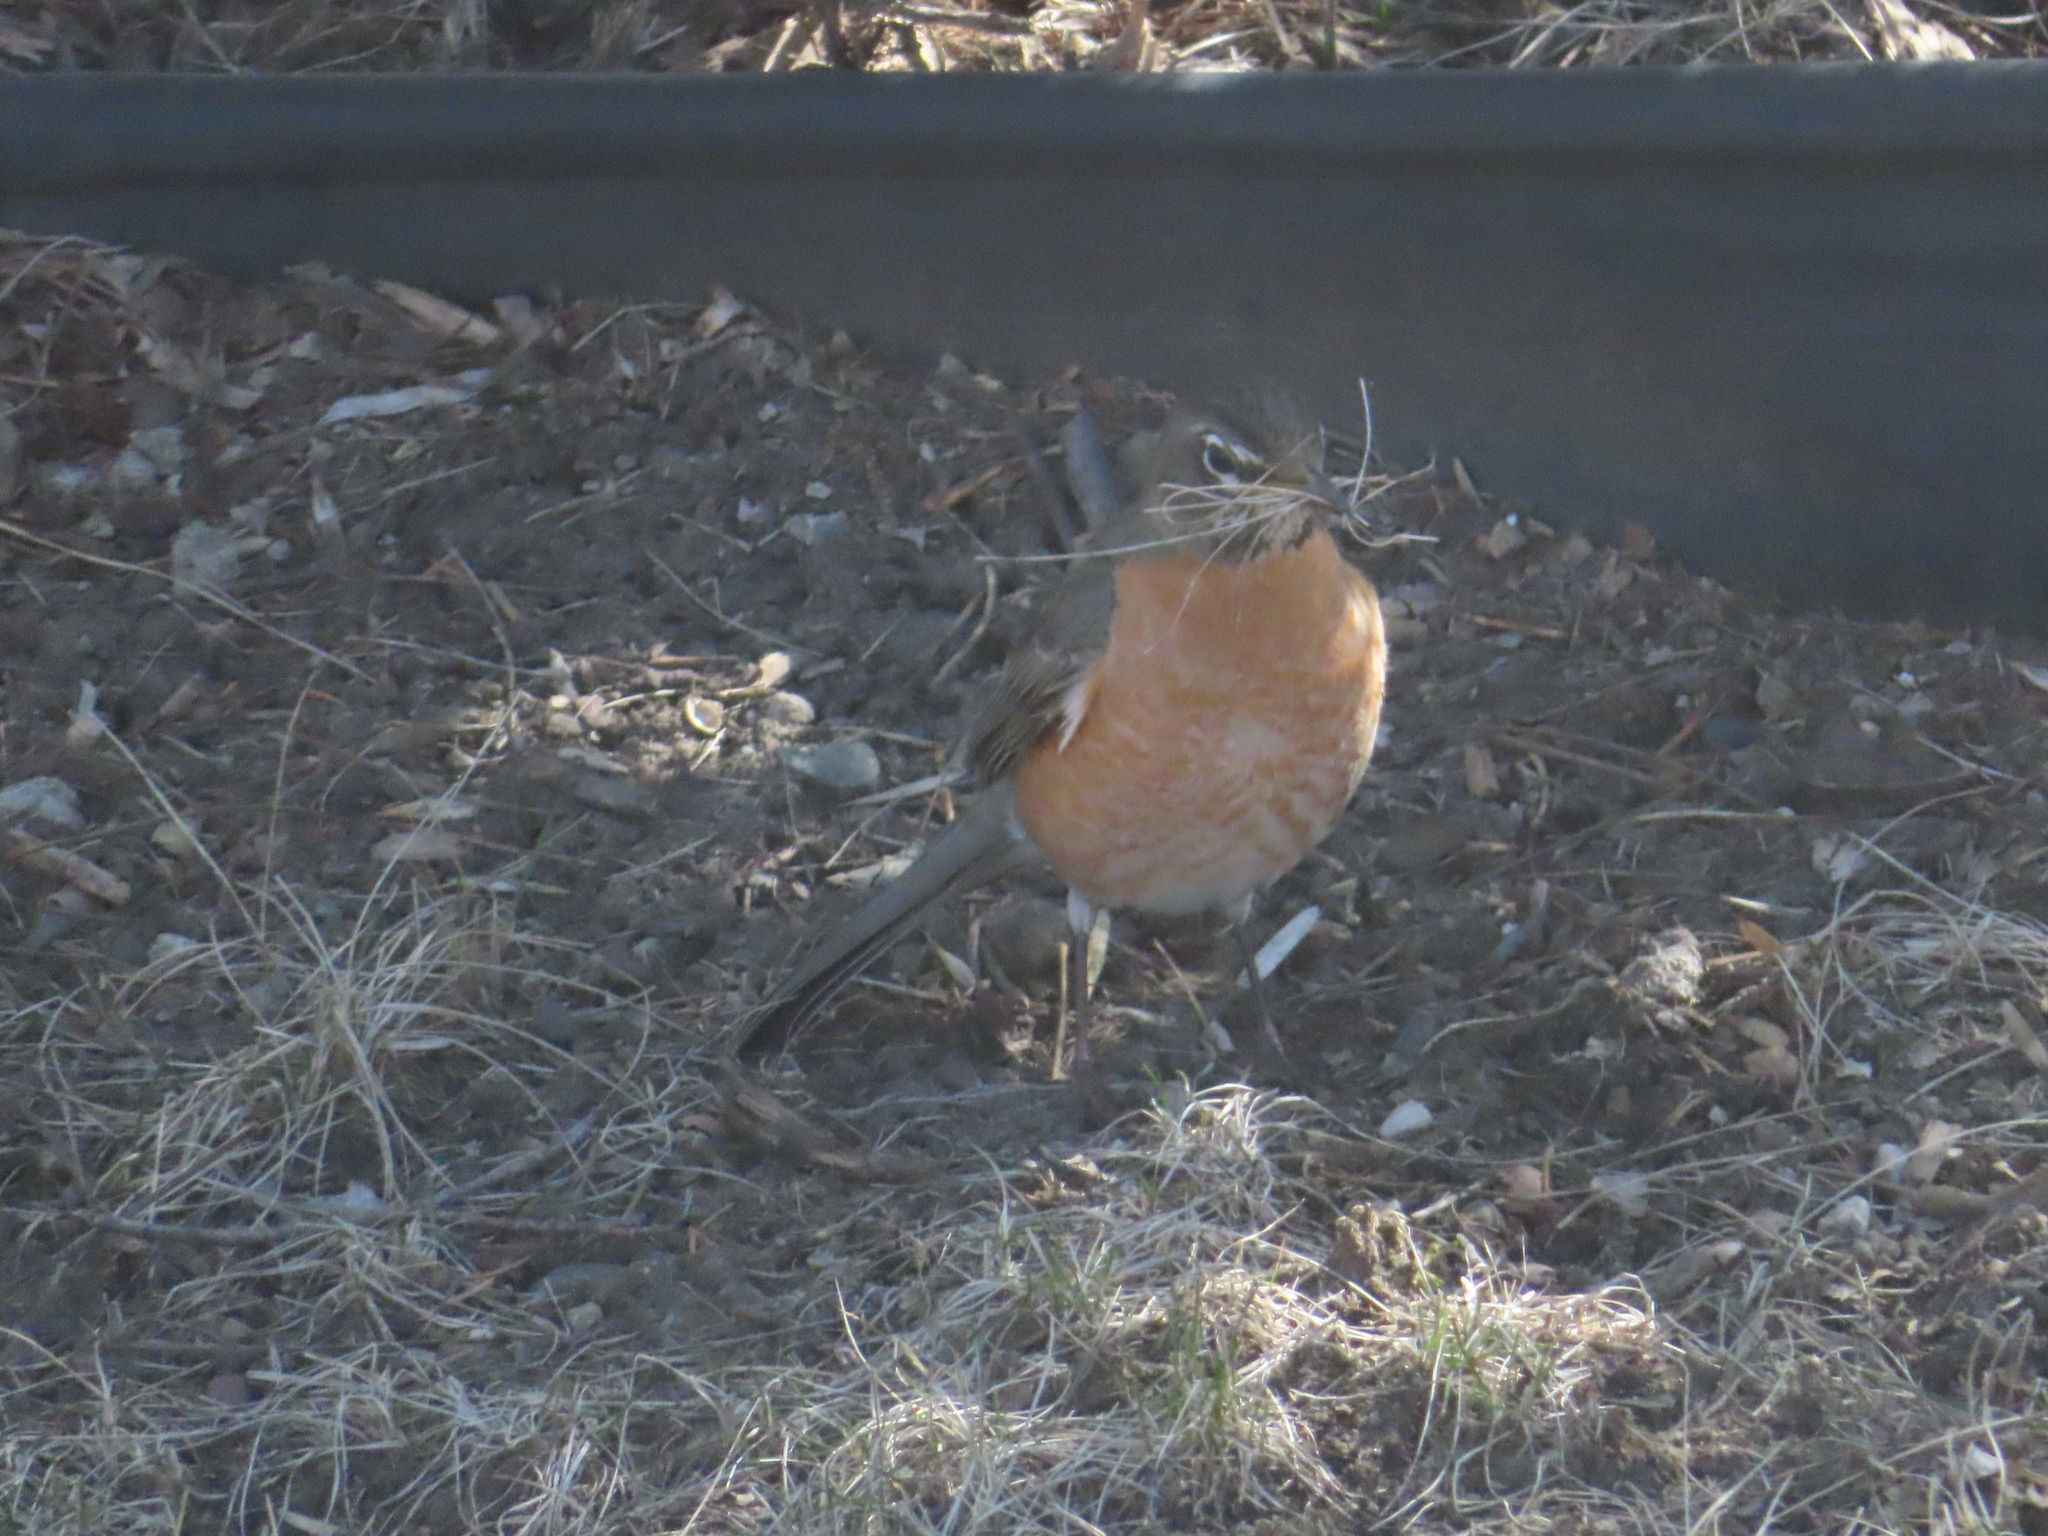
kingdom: Animalia
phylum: Chordata
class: Aves
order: Passeriformes
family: Turdidae
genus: Turdus
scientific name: Turdus migratorius
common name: American robin
